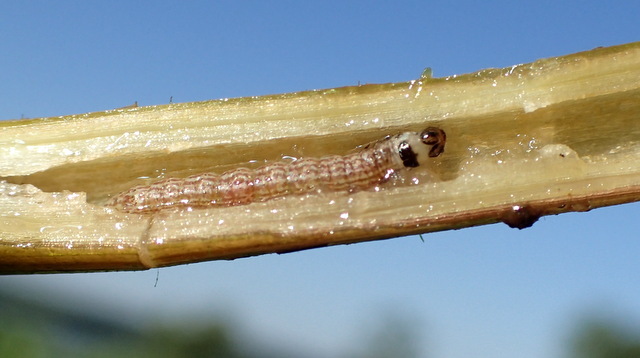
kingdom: Animalia
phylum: Arthropoda
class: Insecta
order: Lepidoptera
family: Pyralidae
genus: Macrorrhinia
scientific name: Macrorrhinia endonephele
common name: Alligator weed stemborer moth
